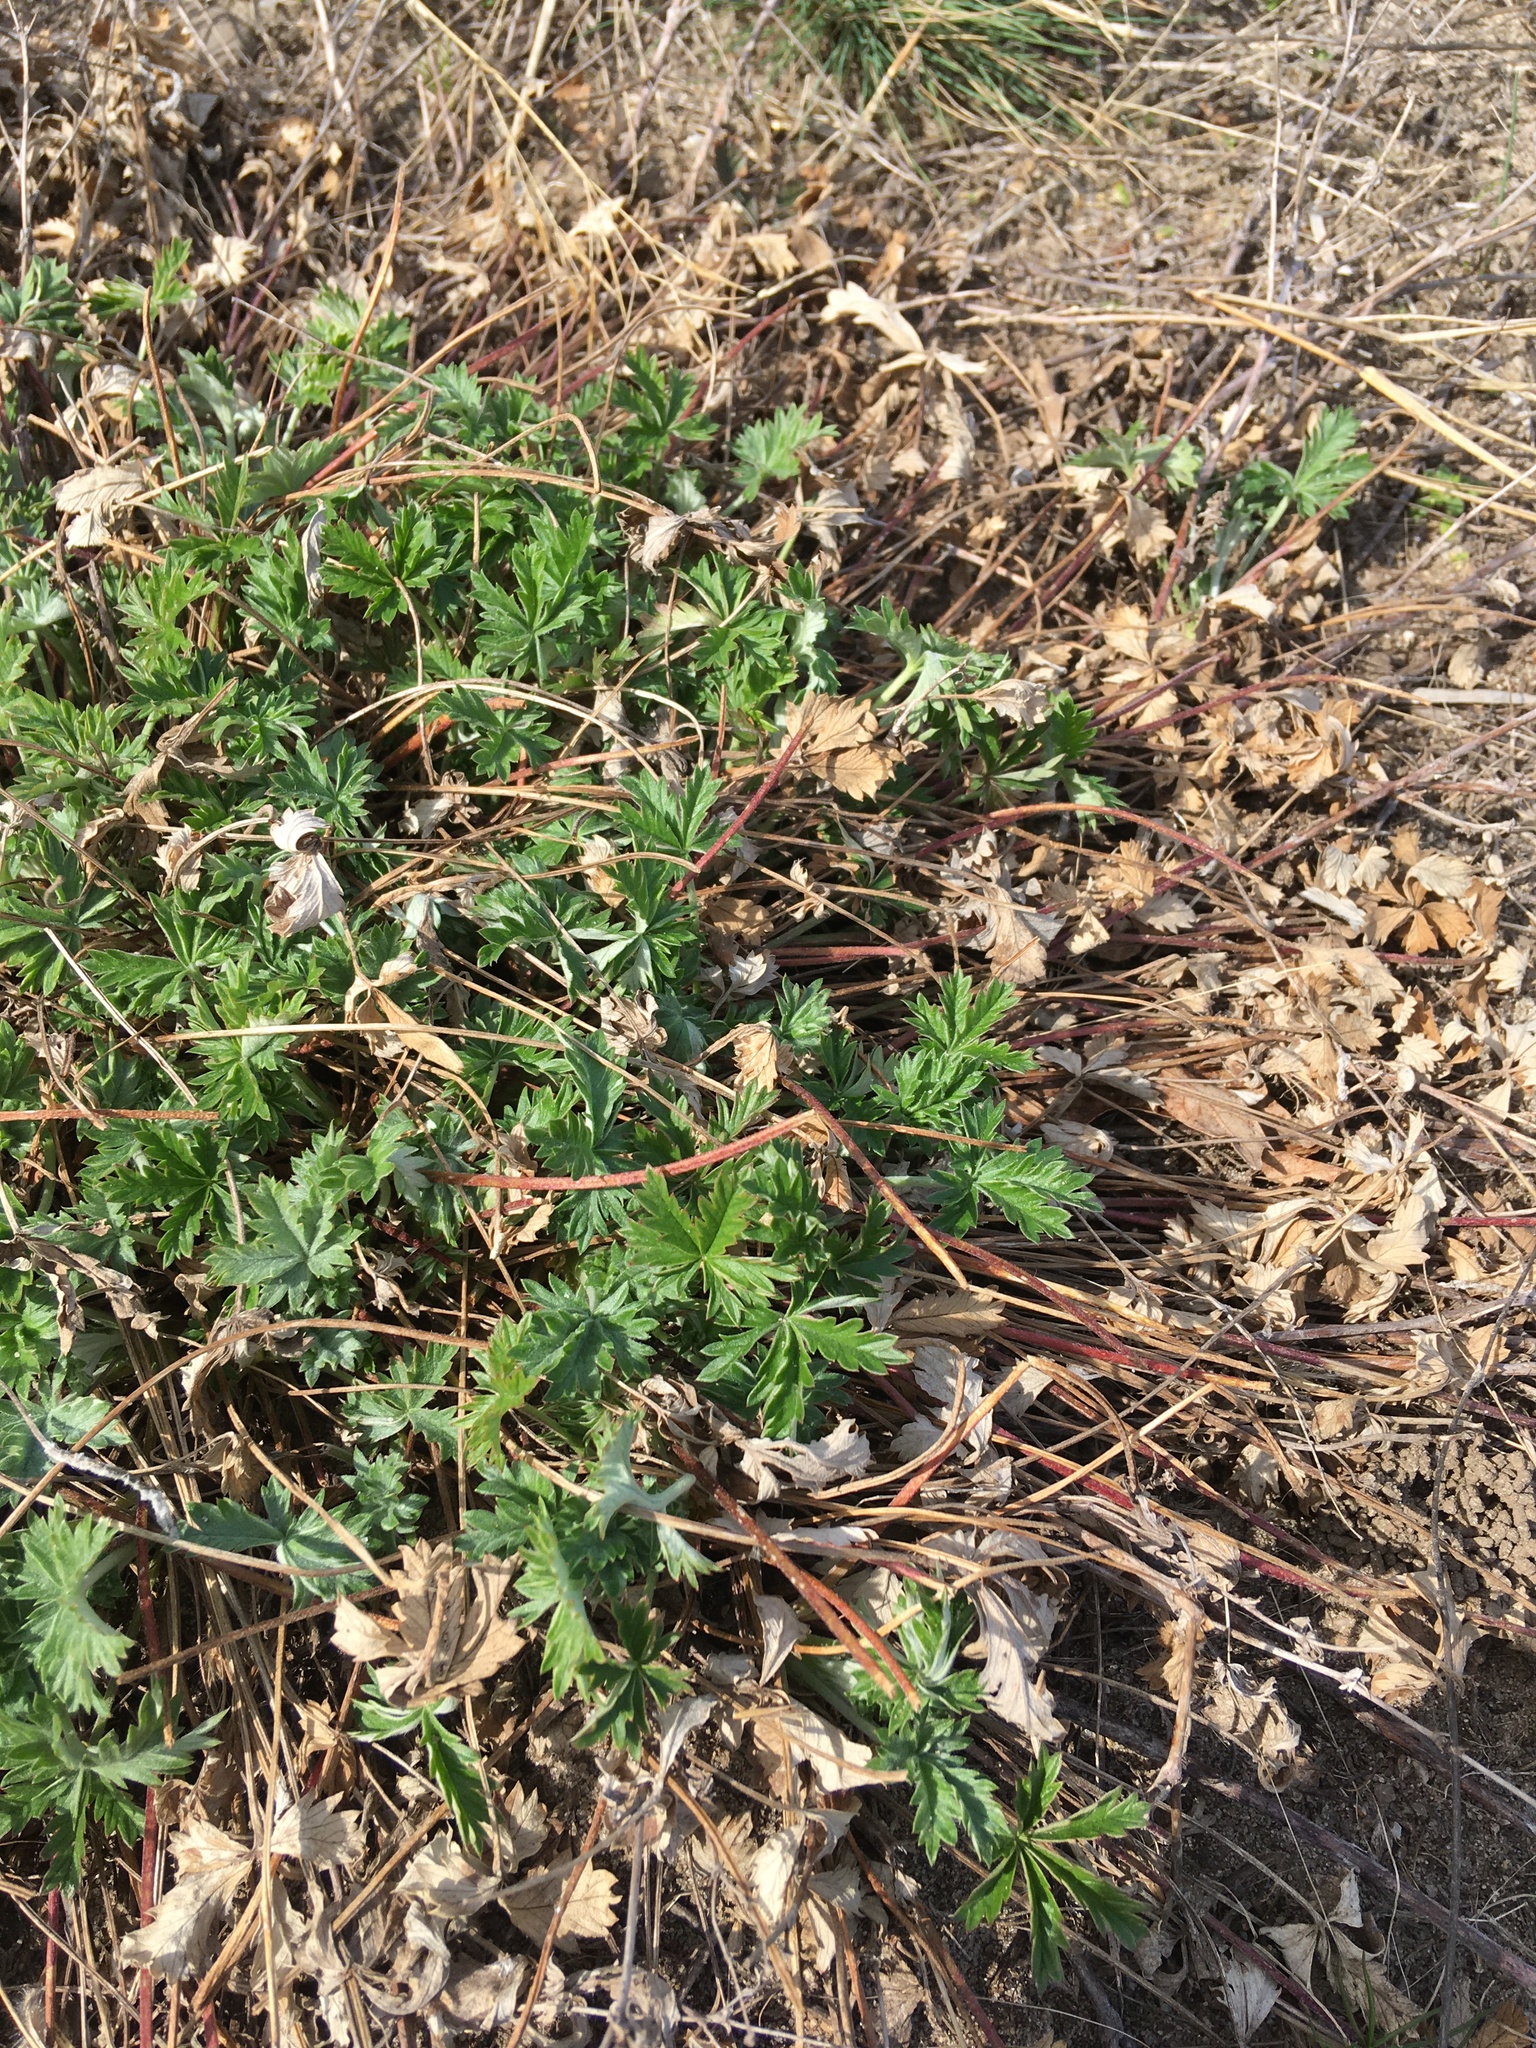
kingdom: Plantae
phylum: Tracheophyta
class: Magnoliopsida
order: Rosales
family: Rosaceae
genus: Potentilla
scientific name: Potentilla argentea
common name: Hoary cinquefoil
